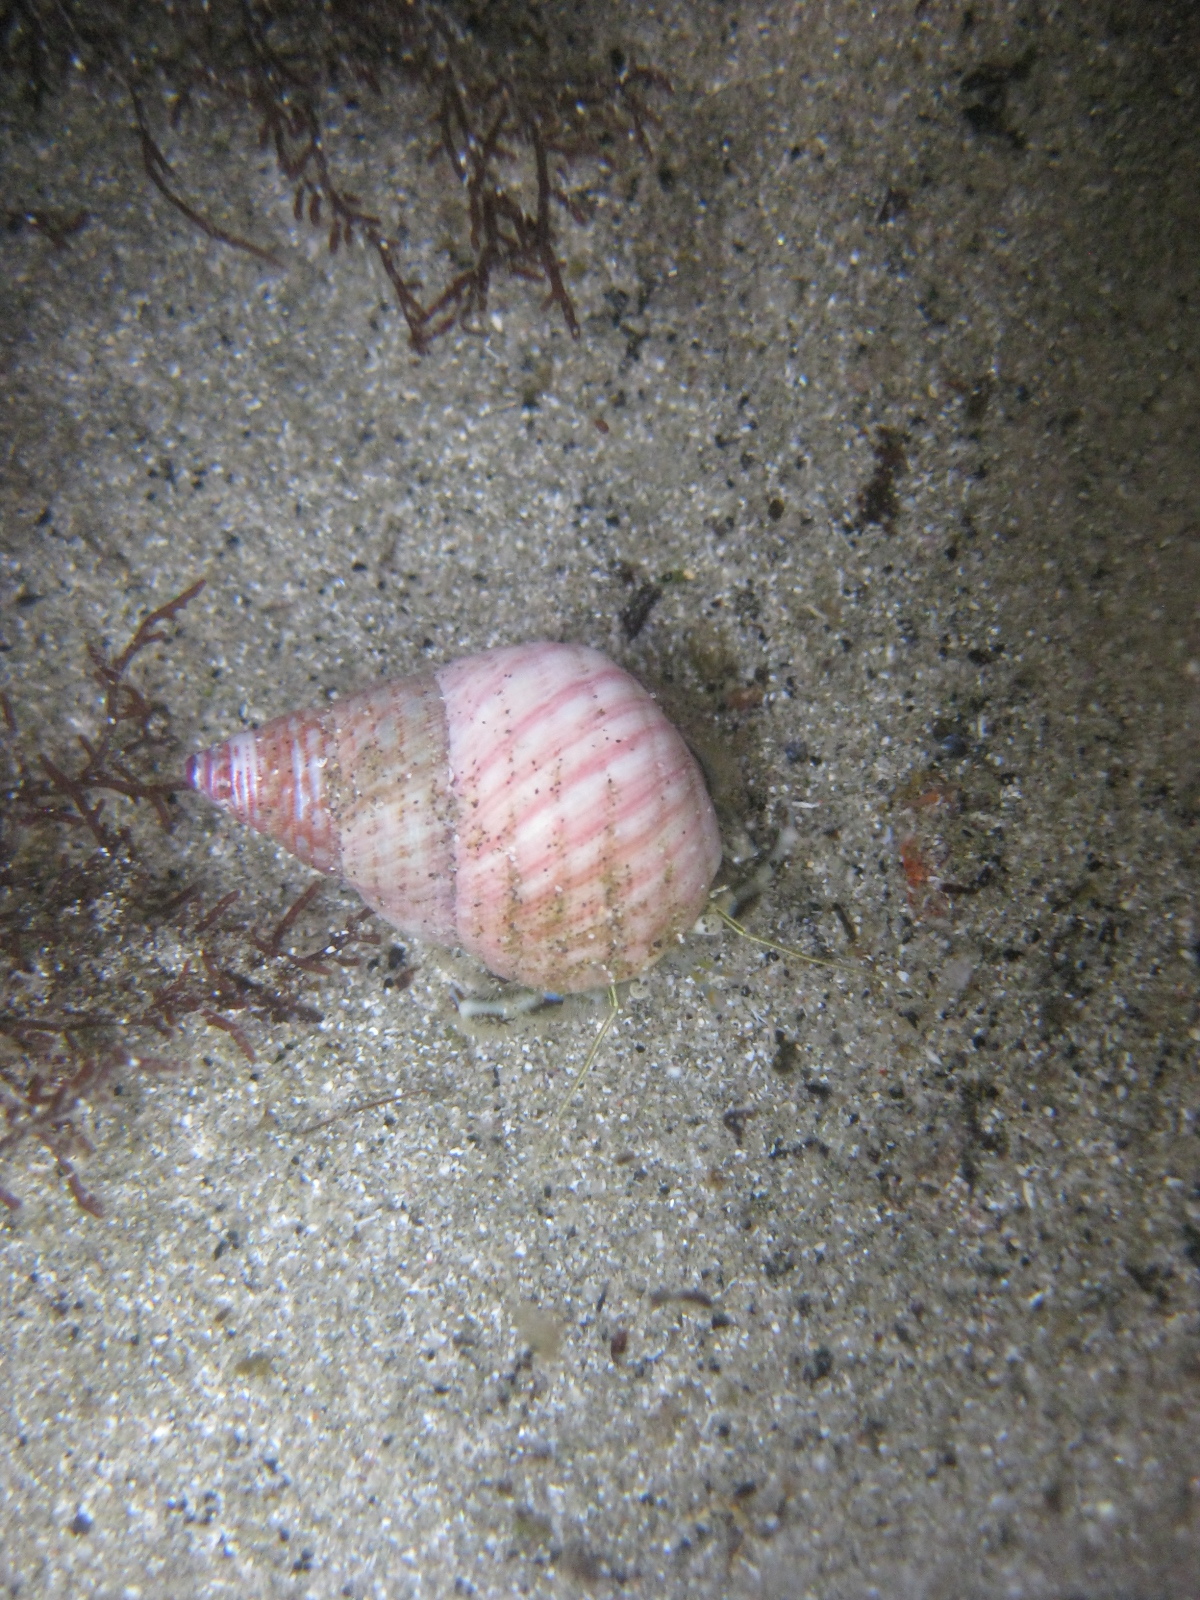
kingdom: Animalia
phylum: Arthropoda
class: Malacostraca
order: Decapoda
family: Paguridae
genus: Pagurus
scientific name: Pagurus novizealandiae
